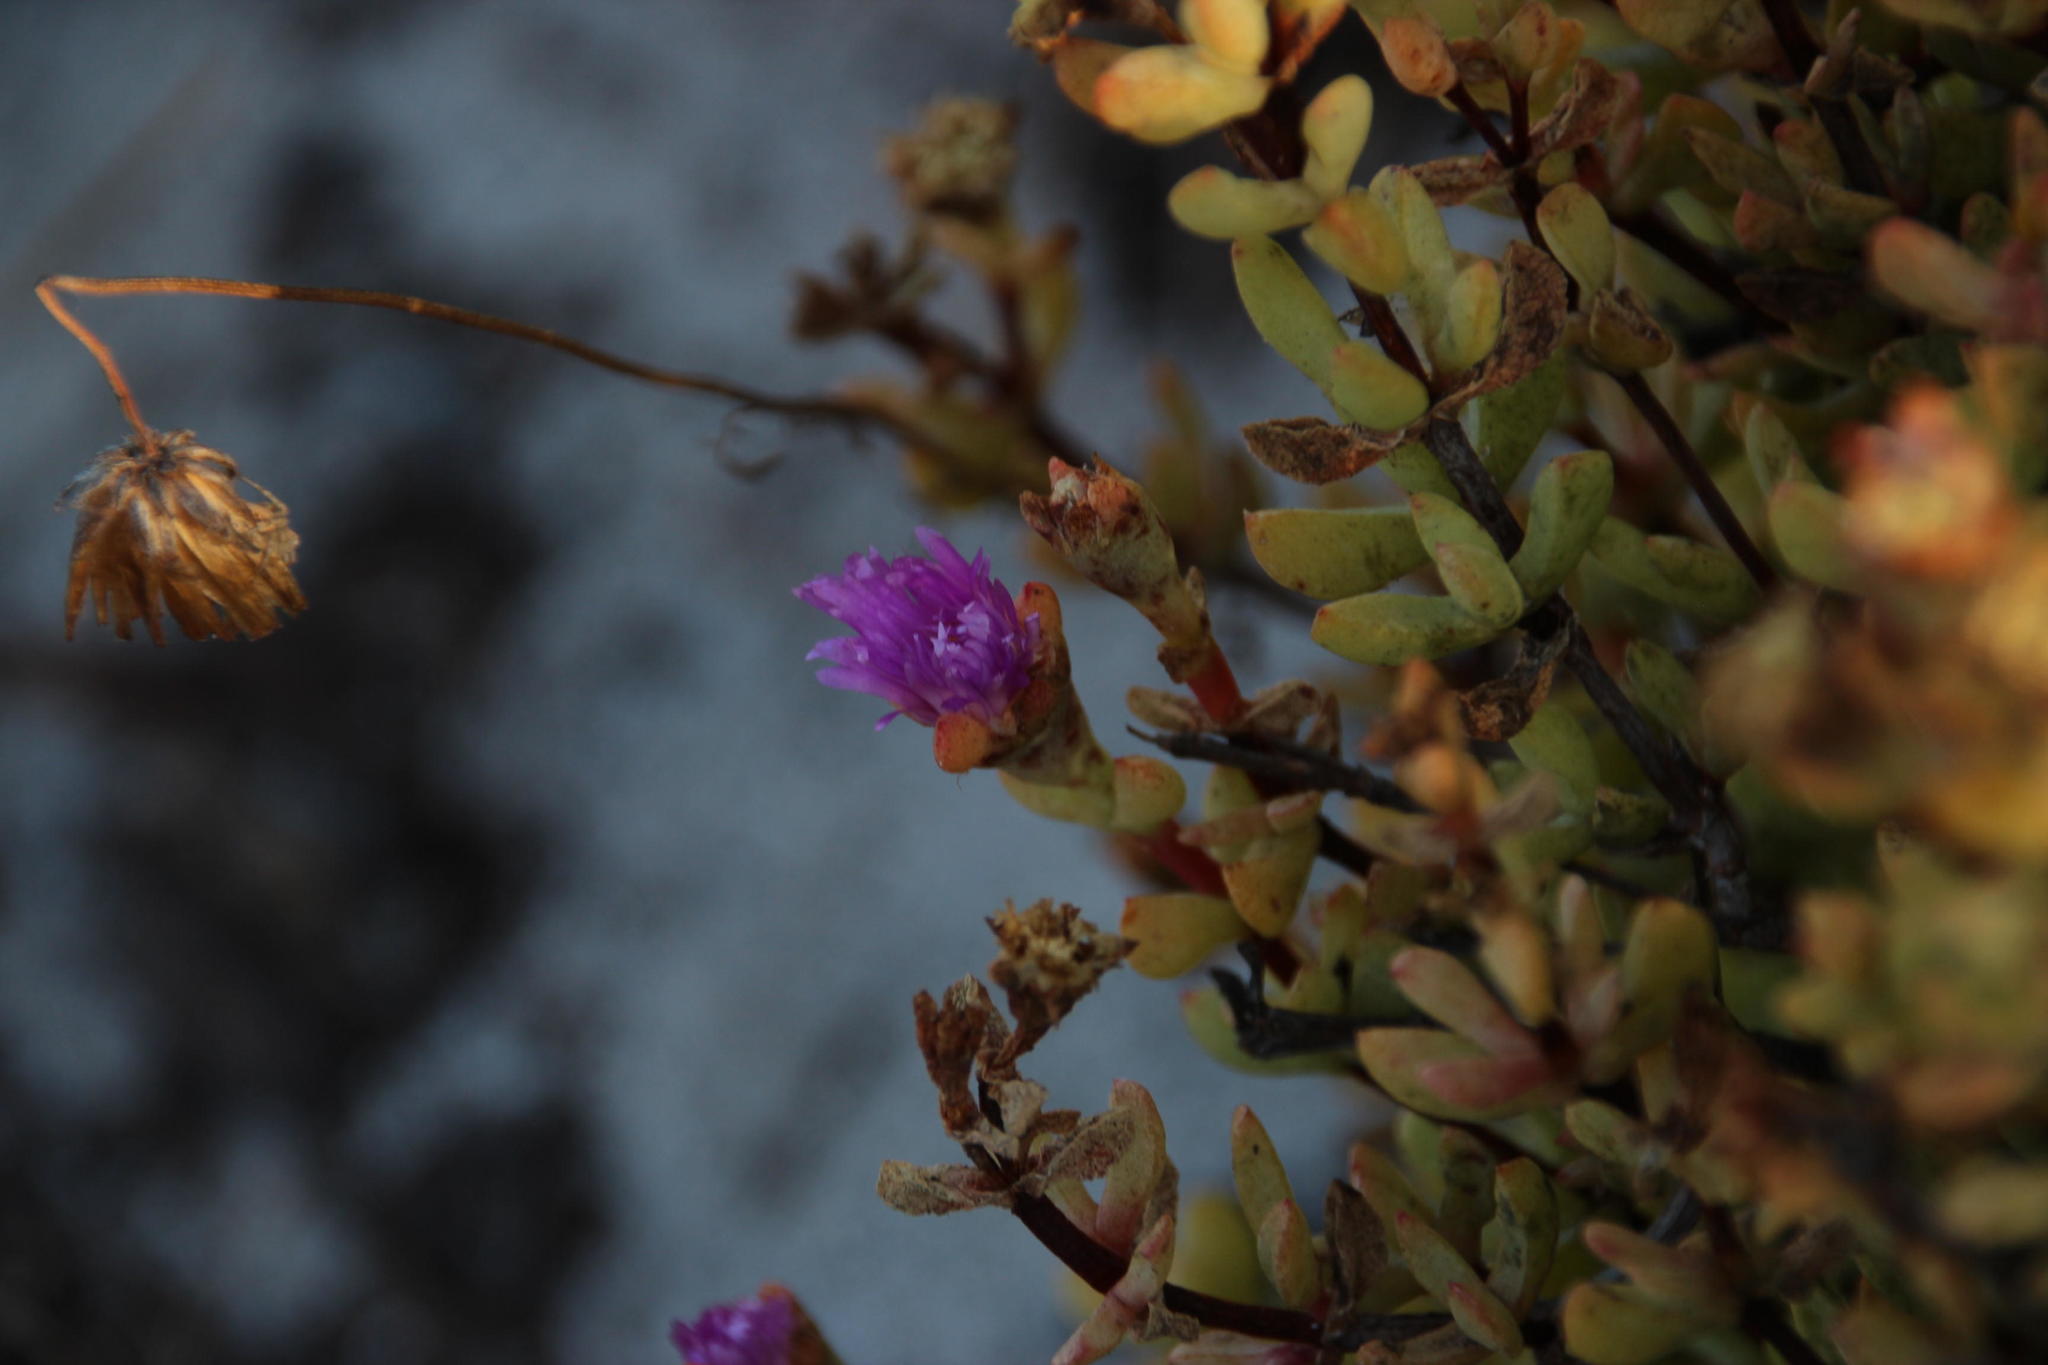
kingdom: Plantae
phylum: Tracheophyta
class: Magnoliopsida
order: Caryophyllales
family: Aizoaceae
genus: Oscularia
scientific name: Oscularia falciformis
